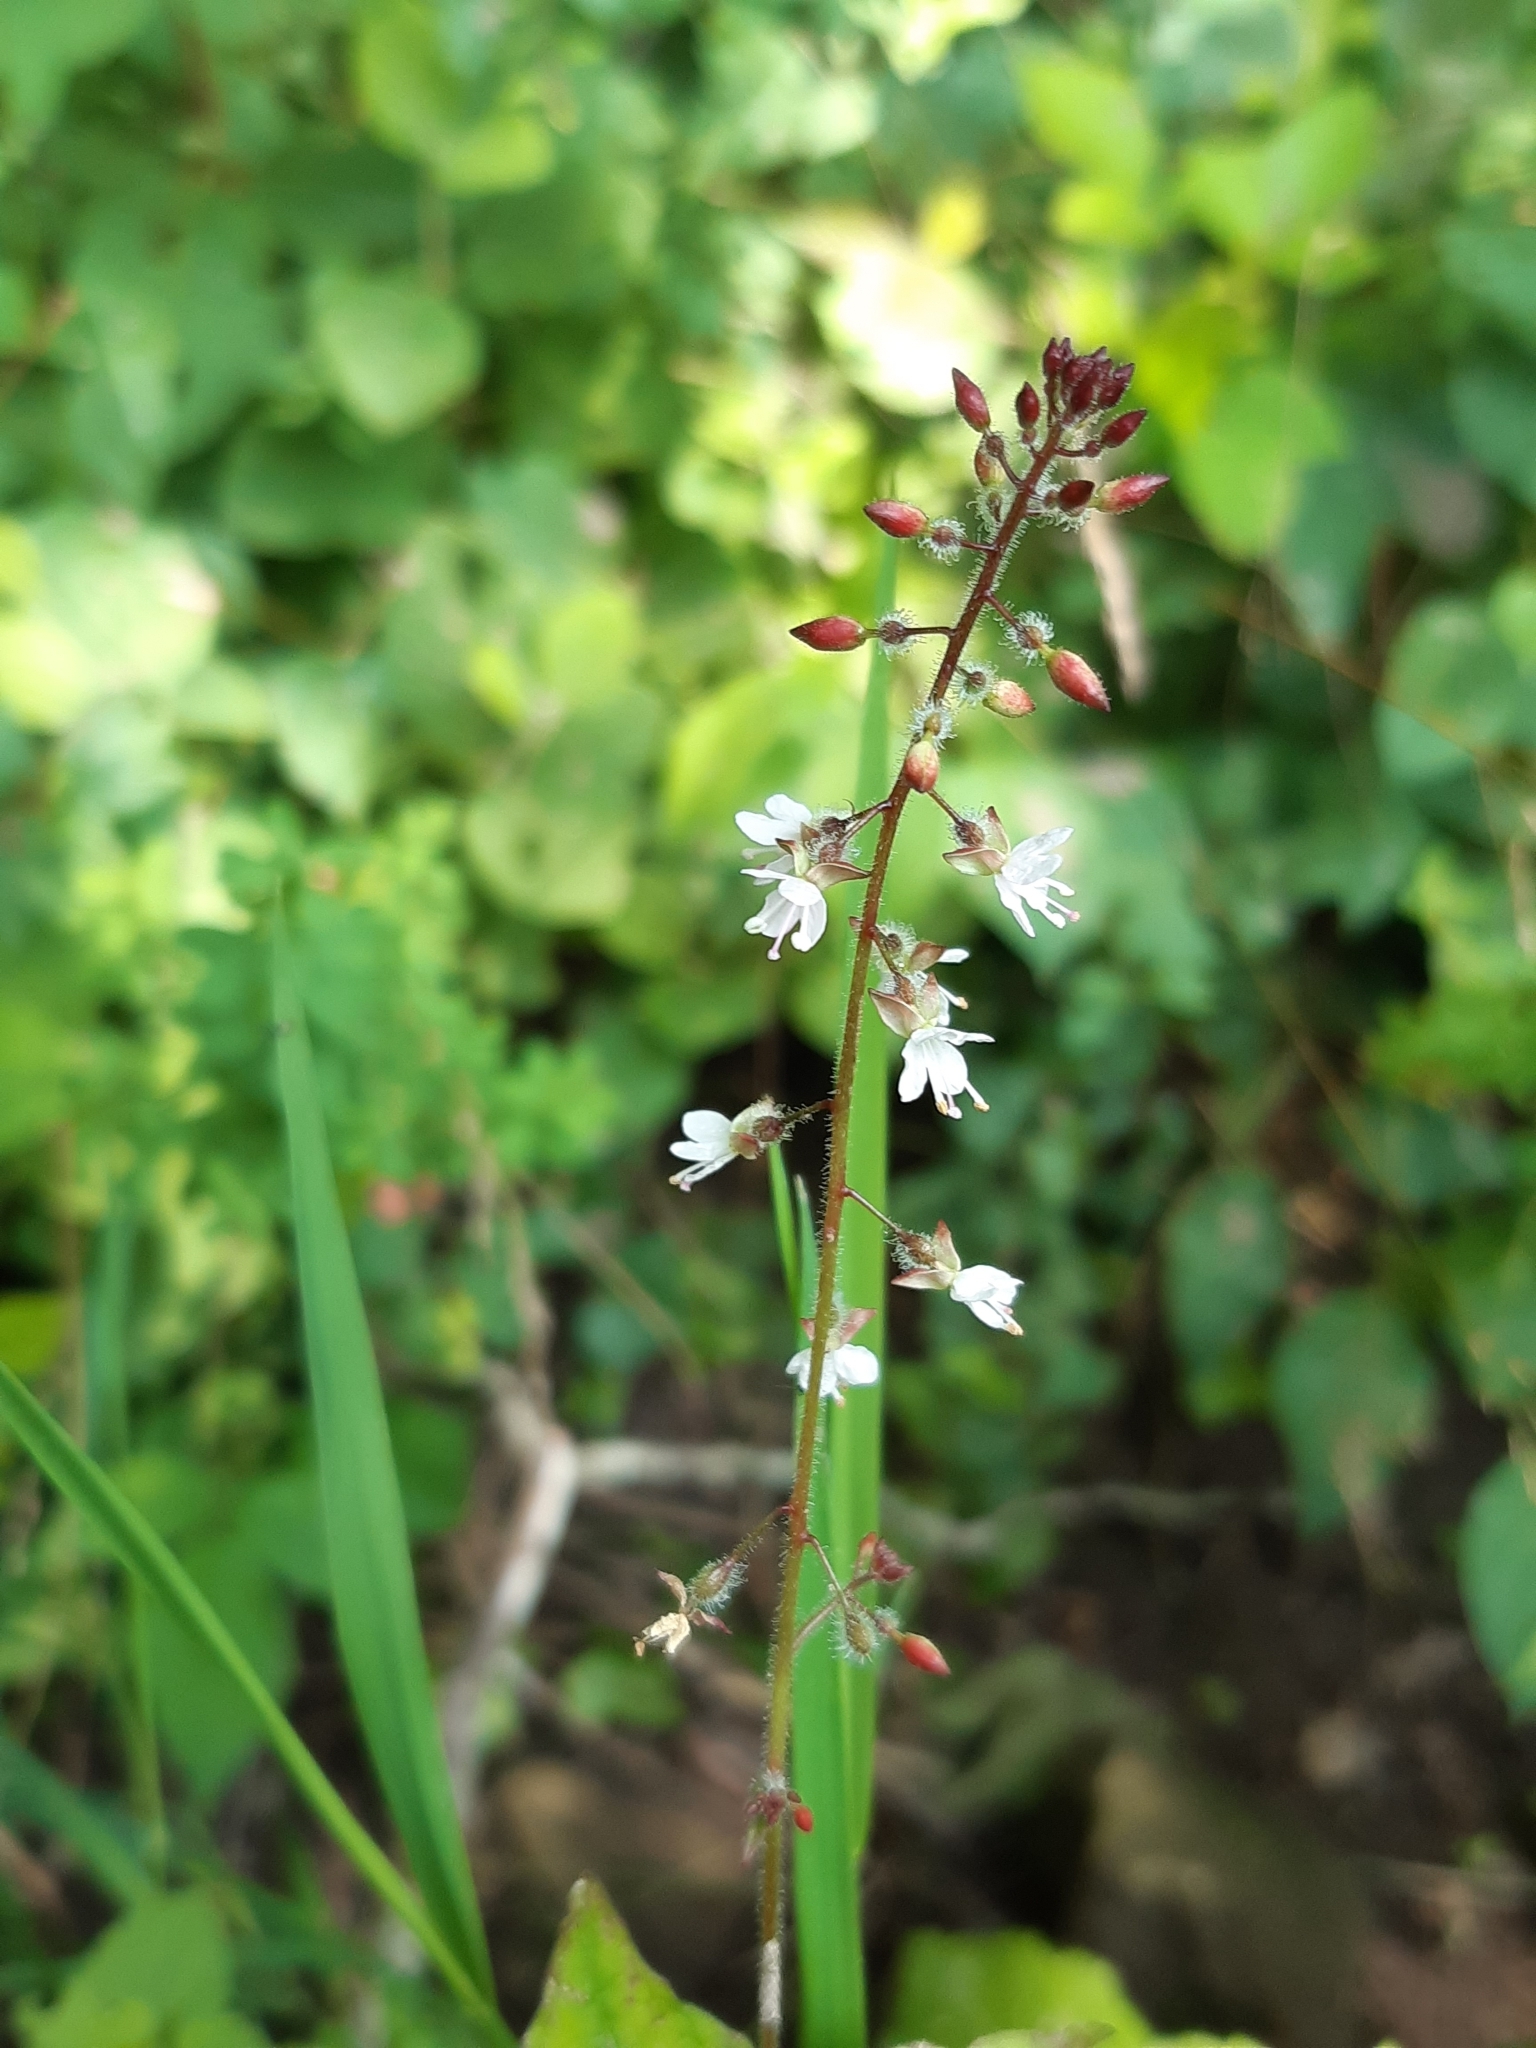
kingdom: Plantae
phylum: Tracheophyta
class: Magnoliopsida
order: Myrtales
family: Onagraceae
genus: Circaea
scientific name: Circaea lutetiana
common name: Enchanter's-nightshade
